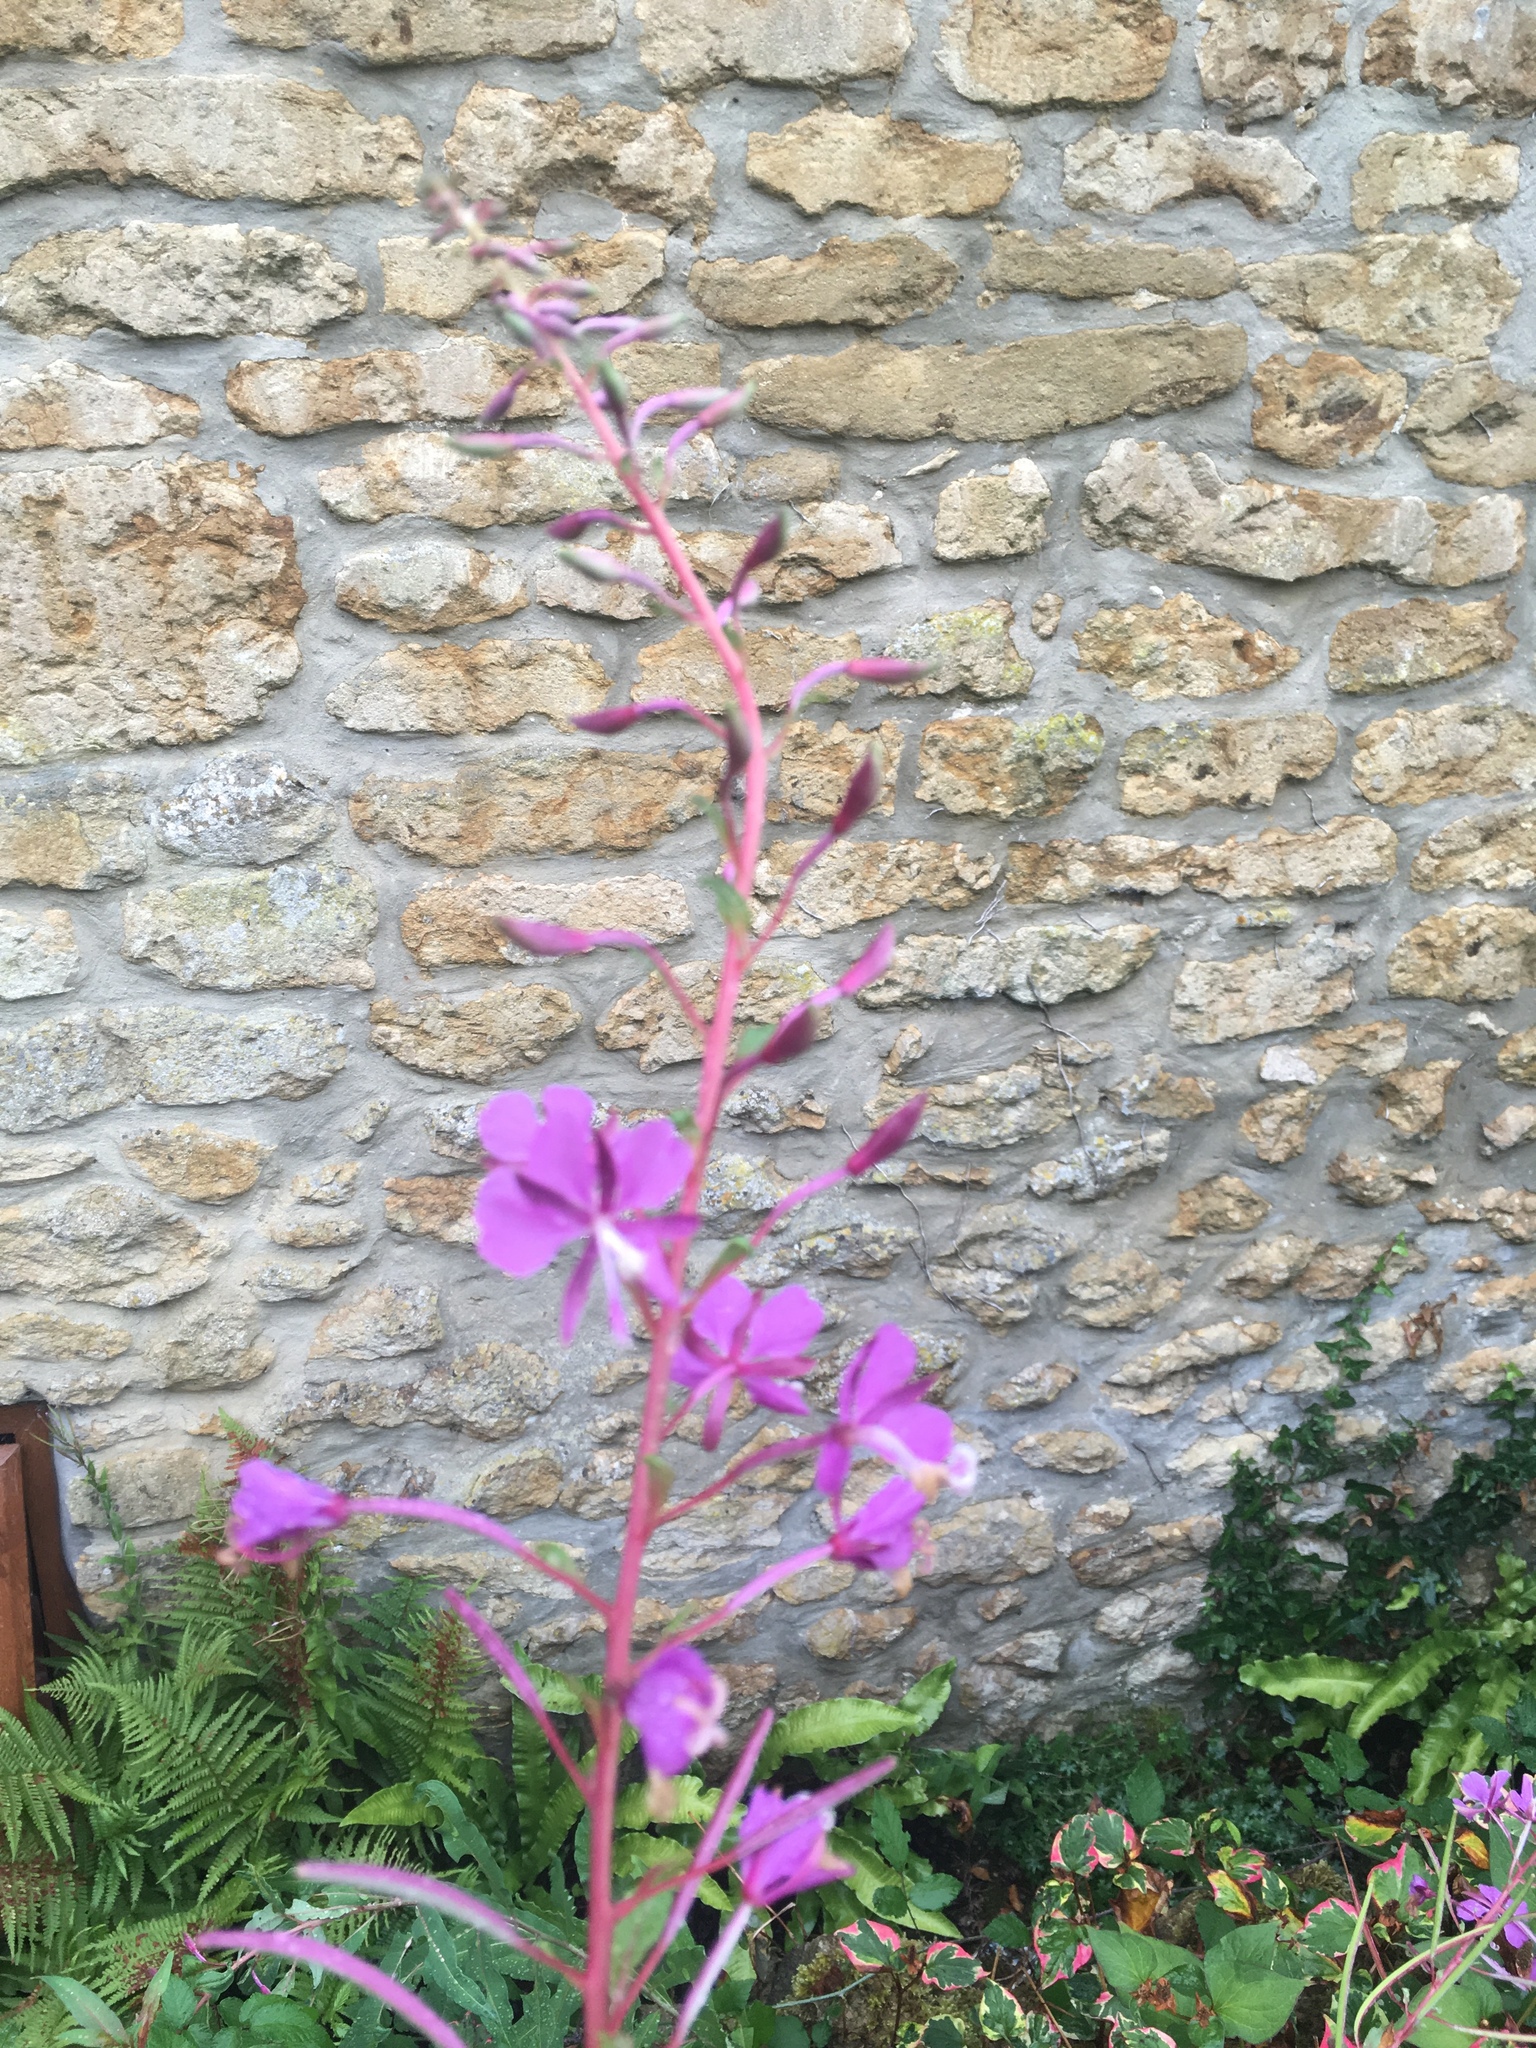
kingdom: Plantae
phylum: Tracheophyta
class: Magnoliopsida
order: Myrtales
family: Onagraceae
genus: Chamaenerion
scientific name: Chamaenerion angustifolium
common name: Fireweed
